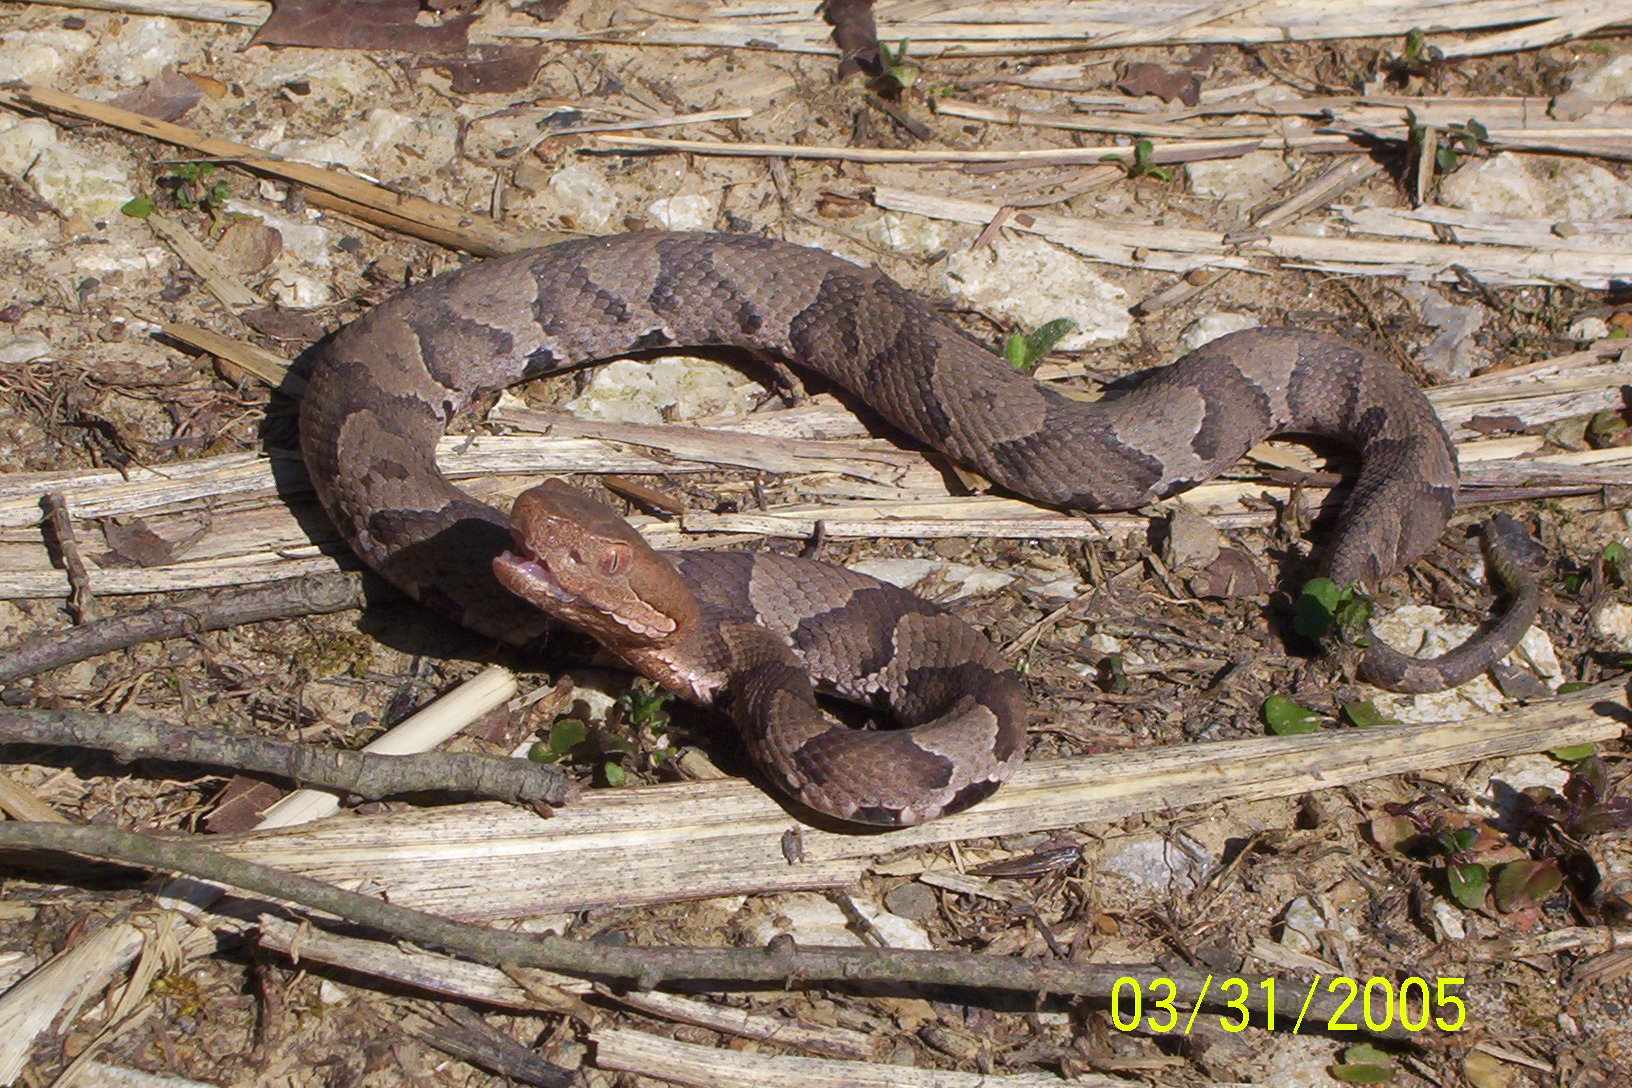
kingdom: Animalia
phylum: Chordata
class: Squamata
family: Viperidae
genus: Agkistrodon
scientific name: Agkistrodon contortrix
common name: Northern copperhead
